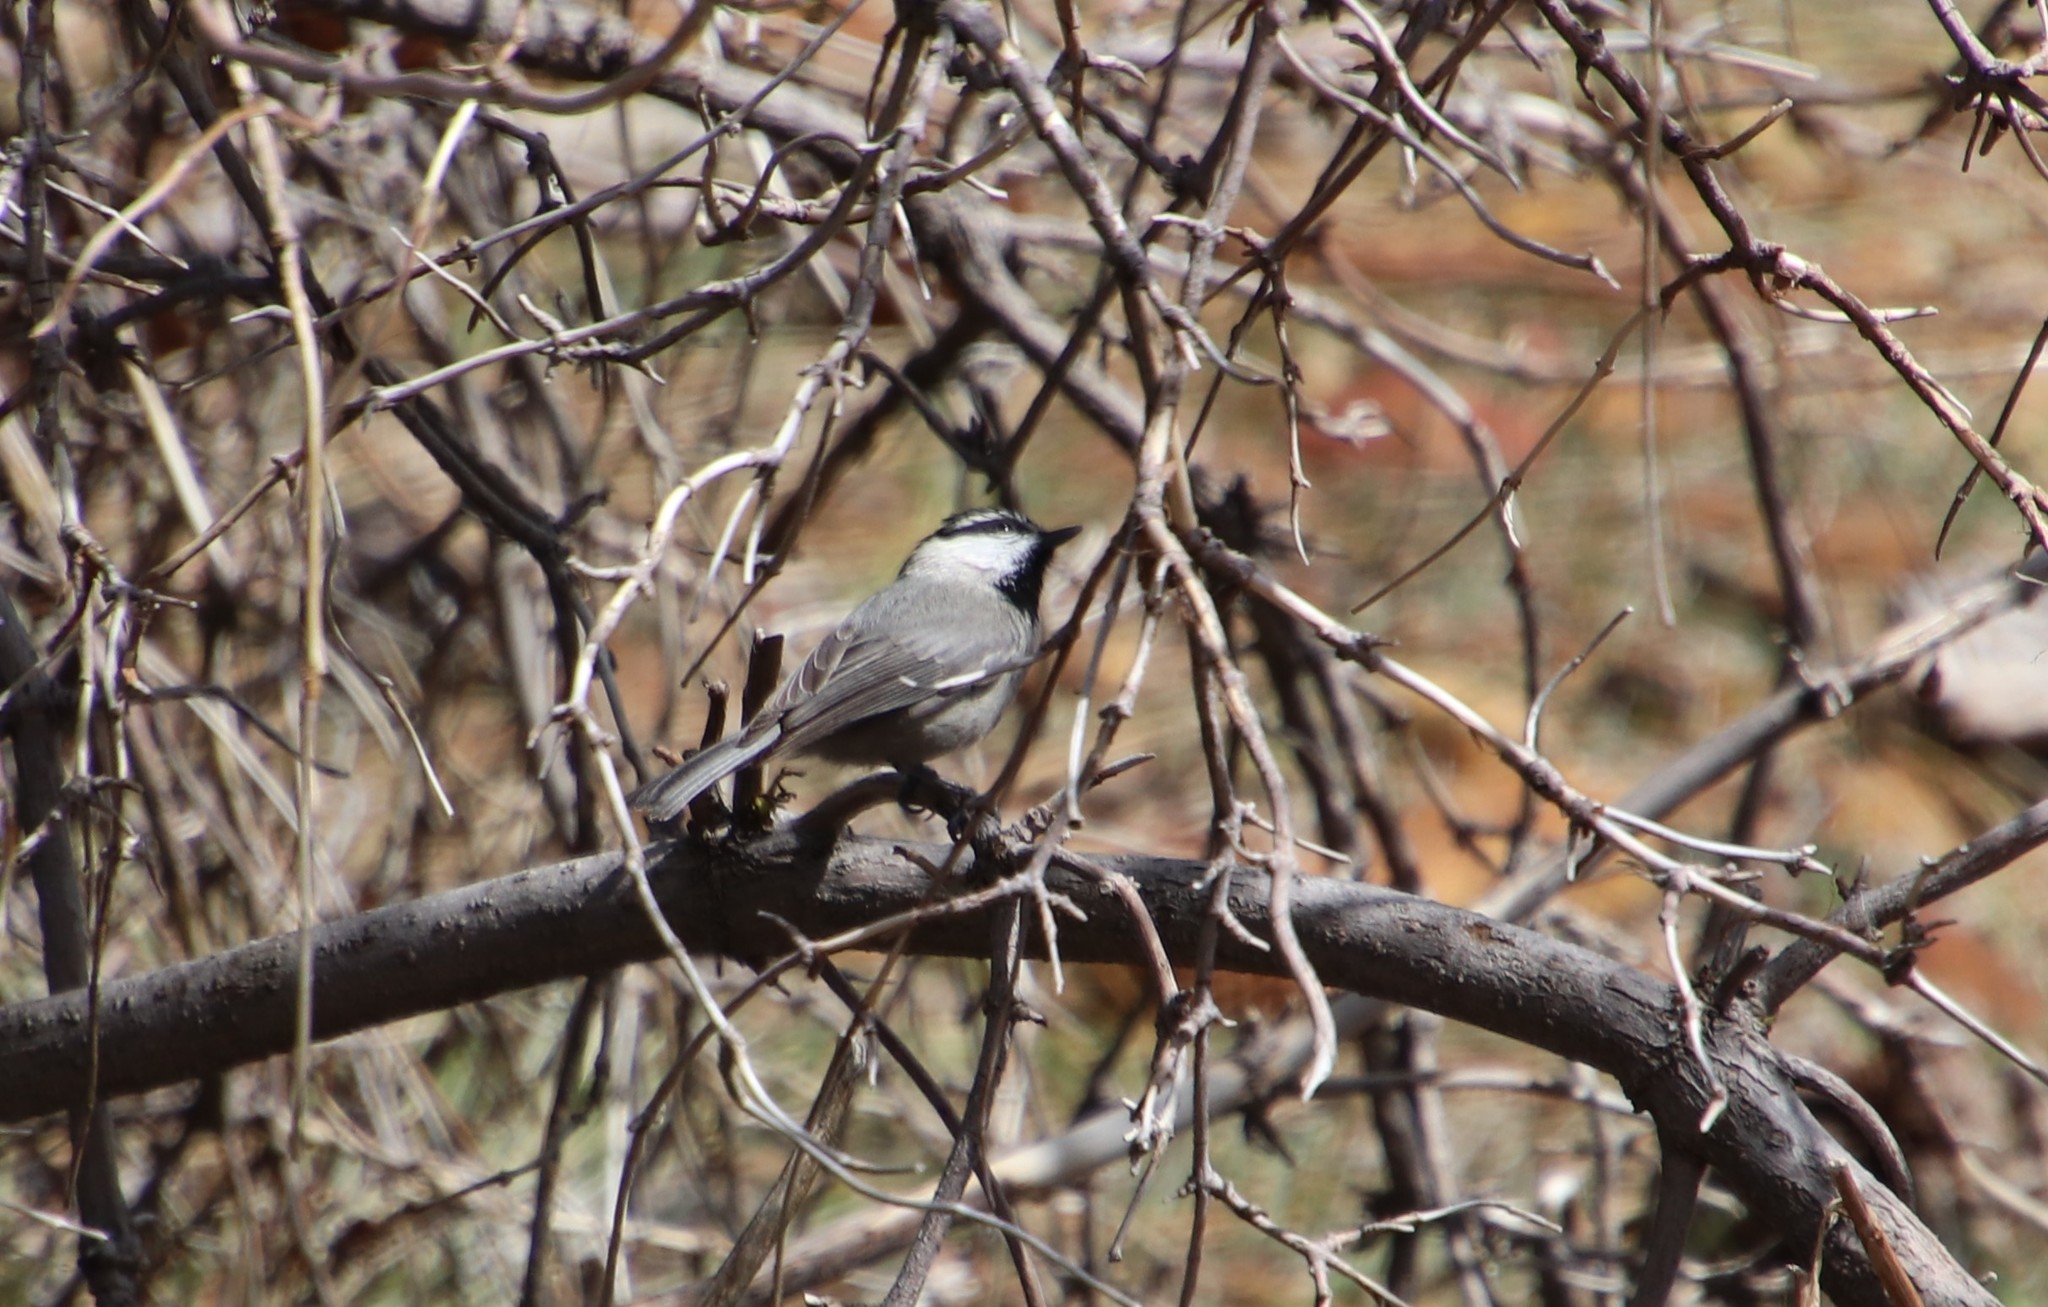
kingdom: Animalia
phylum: Chordata
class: Aves
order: Passeriformes
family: Paridae
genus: Poecile
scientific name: Poecile gambeli
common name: Mountain chickadee
